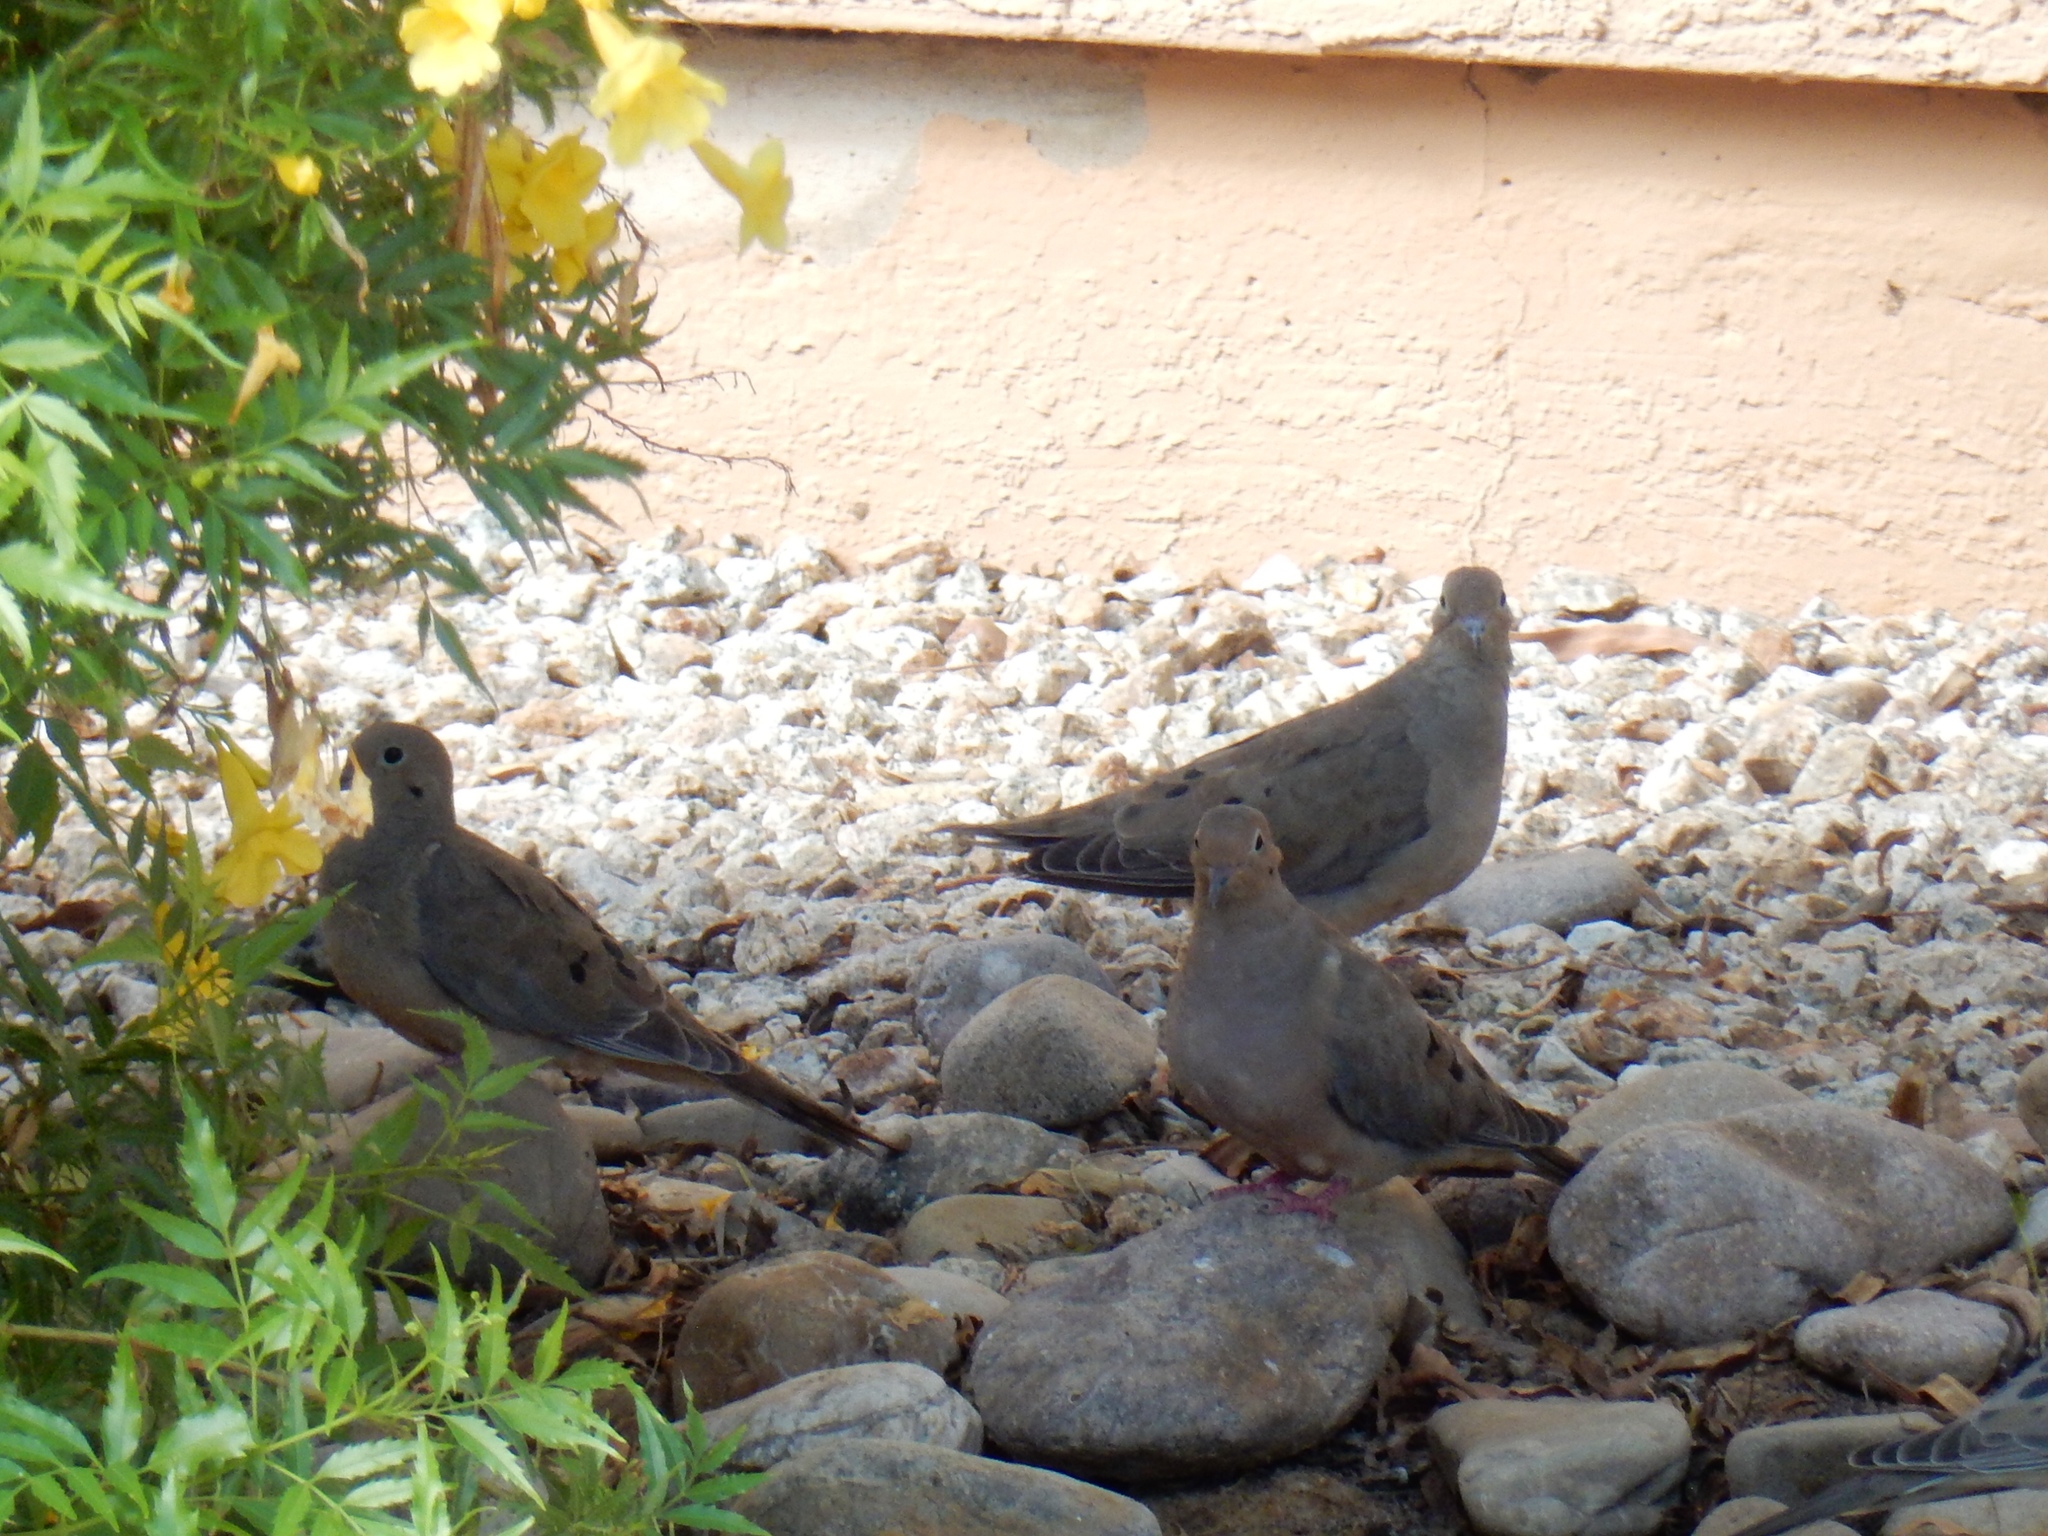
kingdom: Animalia
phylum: Chordata
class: Aves
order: Columbiformes
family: Columbidae
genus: Zenaida
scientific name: Zenaida macroura
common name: Mourning dove
